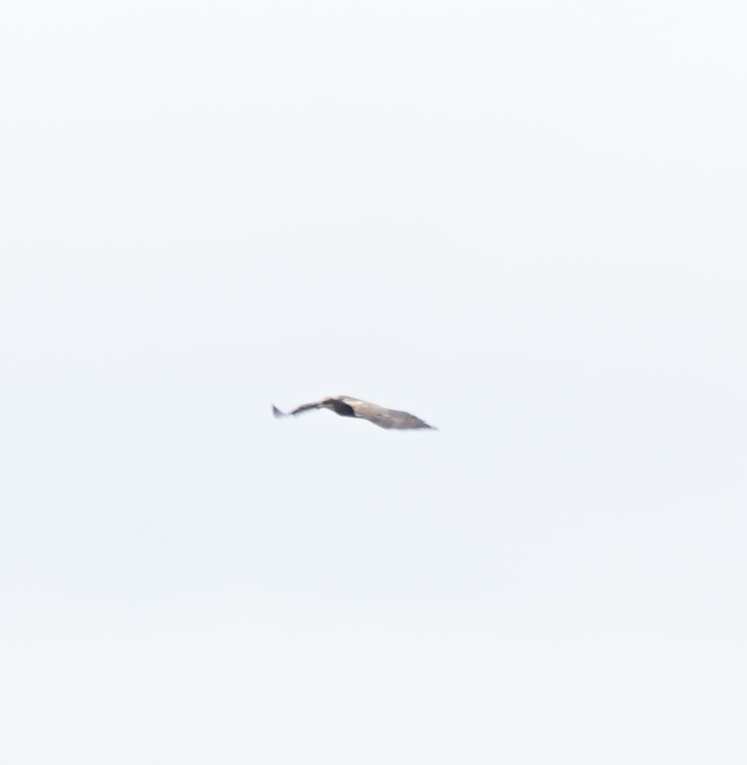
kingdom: Animalia
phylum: Chordata
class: Aves
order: Accipitriformes
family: Accipitridae
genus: Circus
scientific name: Circus aeruginosus
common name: Western marsh harrier
